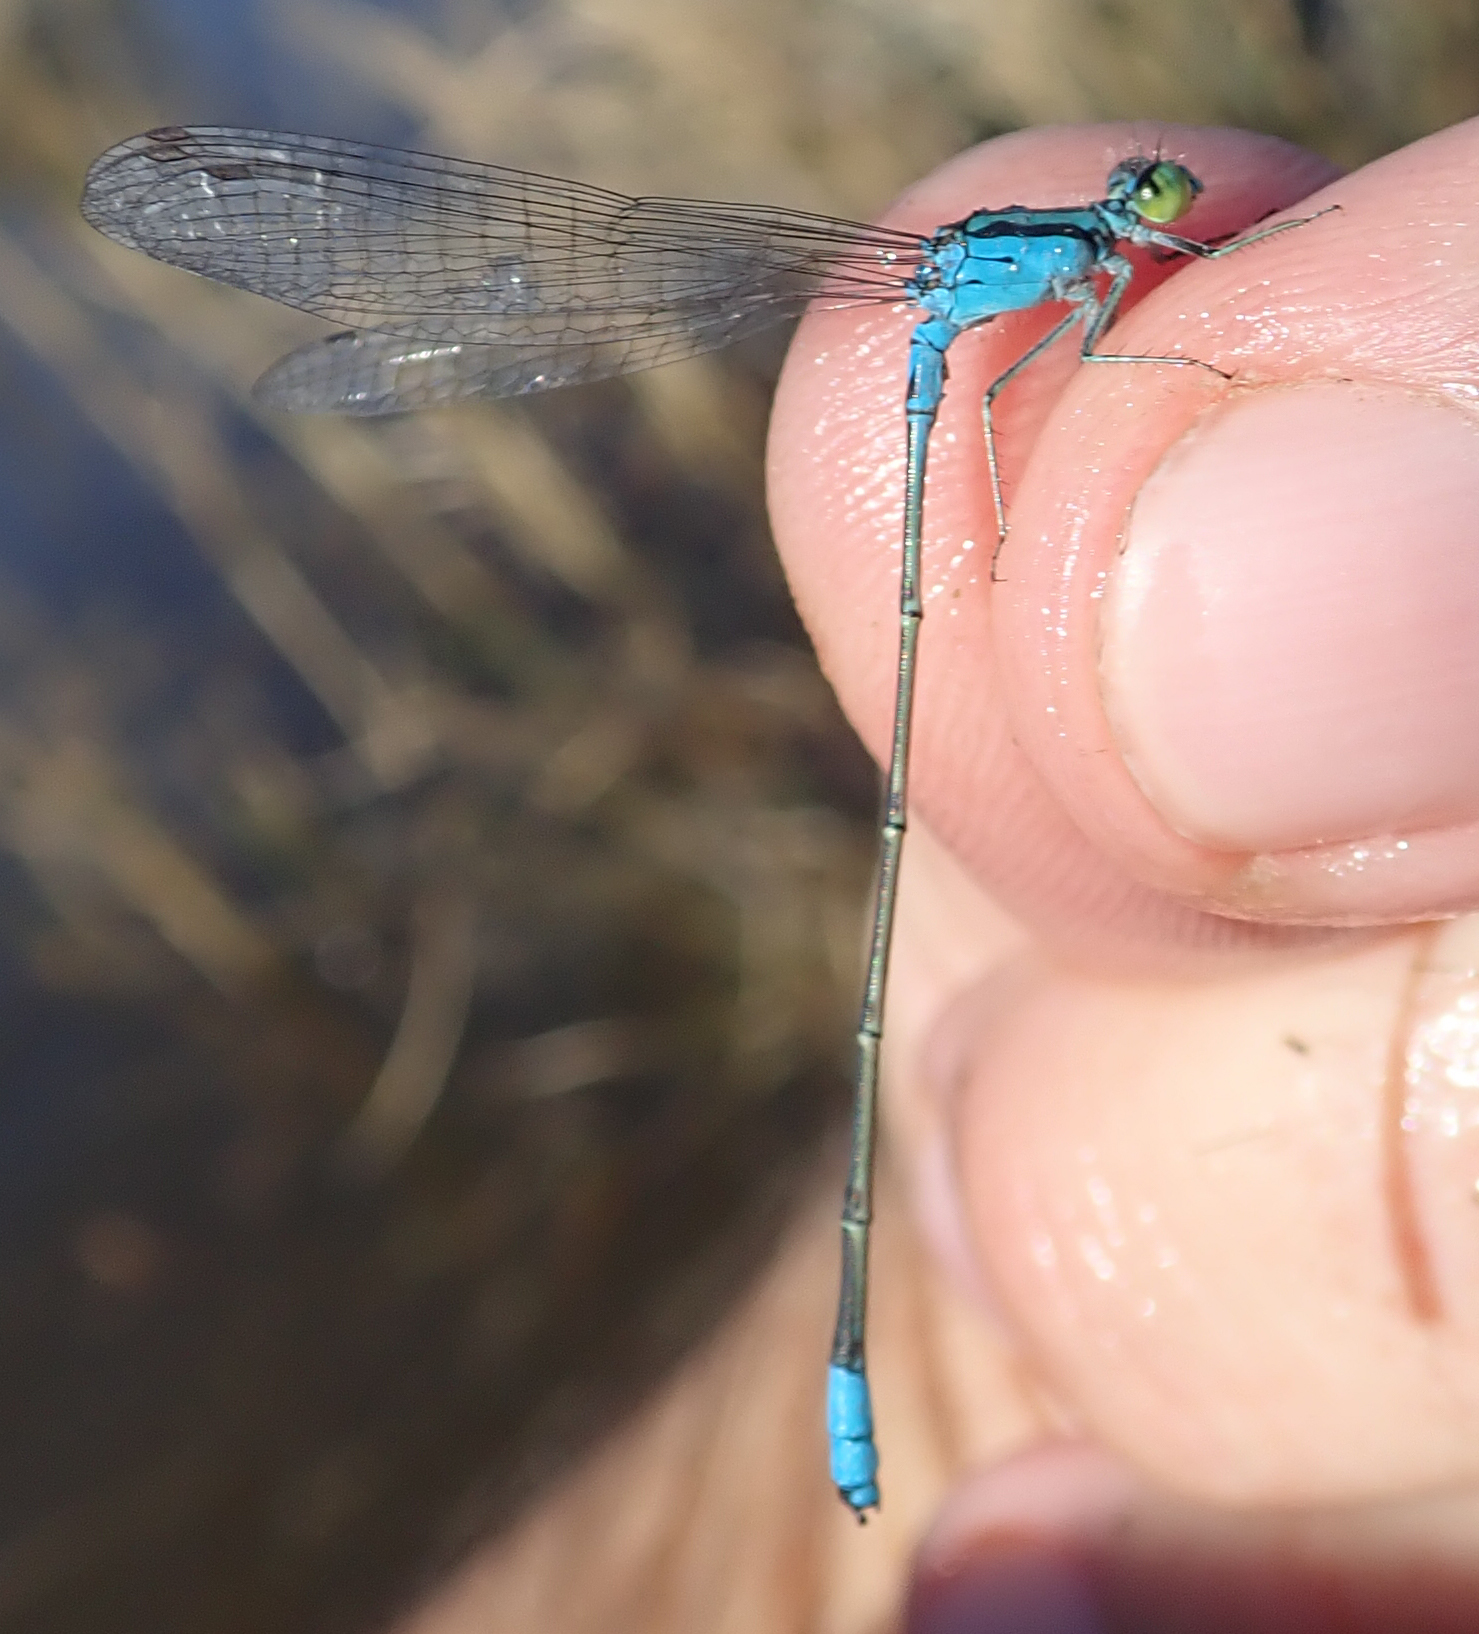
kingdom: Animalia
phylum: Arthropoda
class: Insecta
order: Odonata
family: Coenagrionidae
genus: Pseudagrion
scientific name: Pseudagrion coeleste
